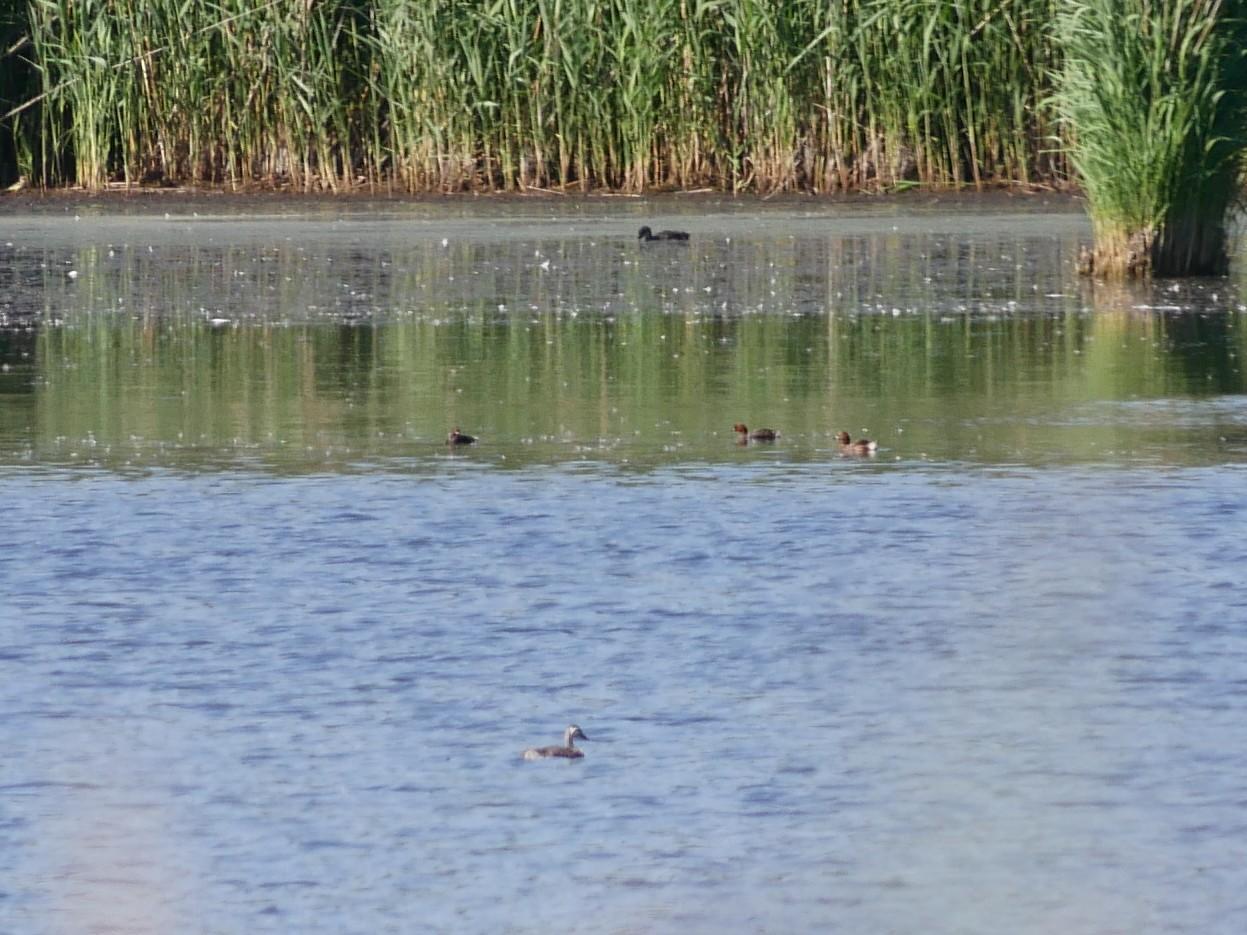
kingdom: Animalia
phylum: Chordata
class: Aves
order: Podicipediformes
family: Podicipedidae
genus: Tachybaptus
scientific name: Tachybaptus ruficollis
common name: Little grebe
